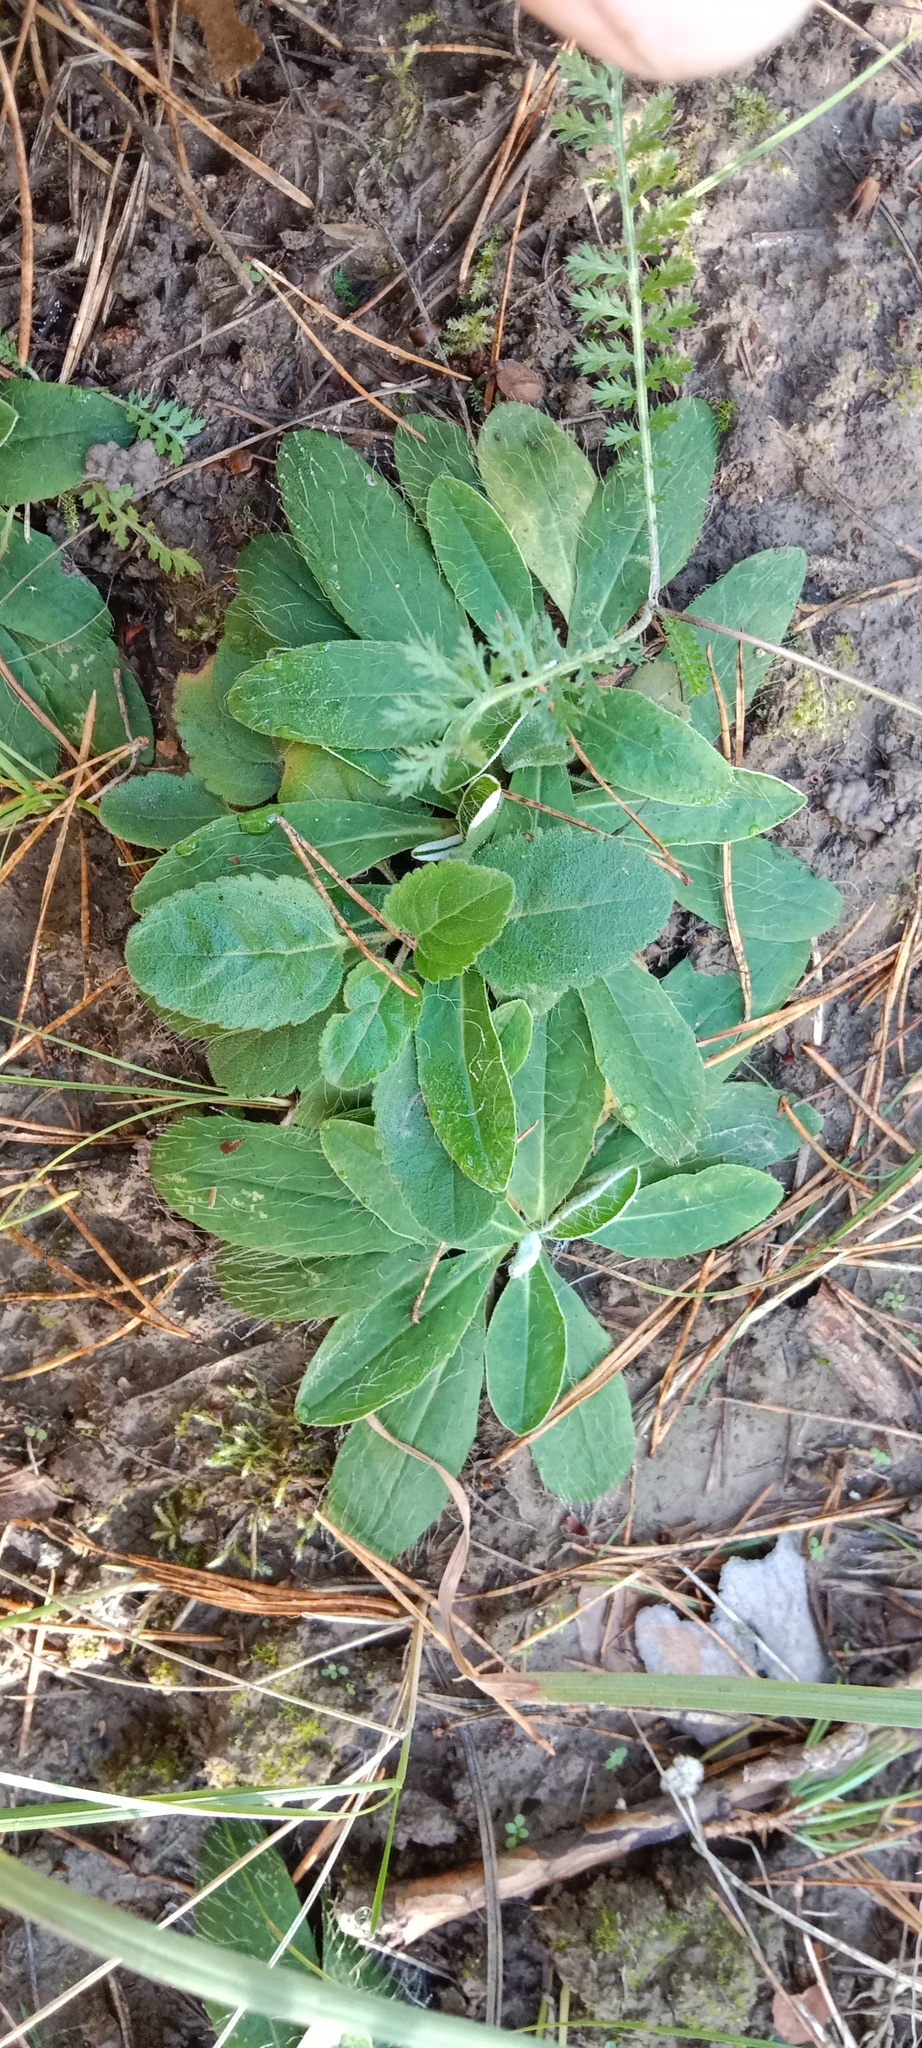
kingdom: Plantae
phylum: Tracheophyta
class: Magnoliopsida
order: Asterales
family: Asteraceae
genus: Pilosella
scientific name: Pilosella officinarum
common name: Mouse-ear hawkweed
